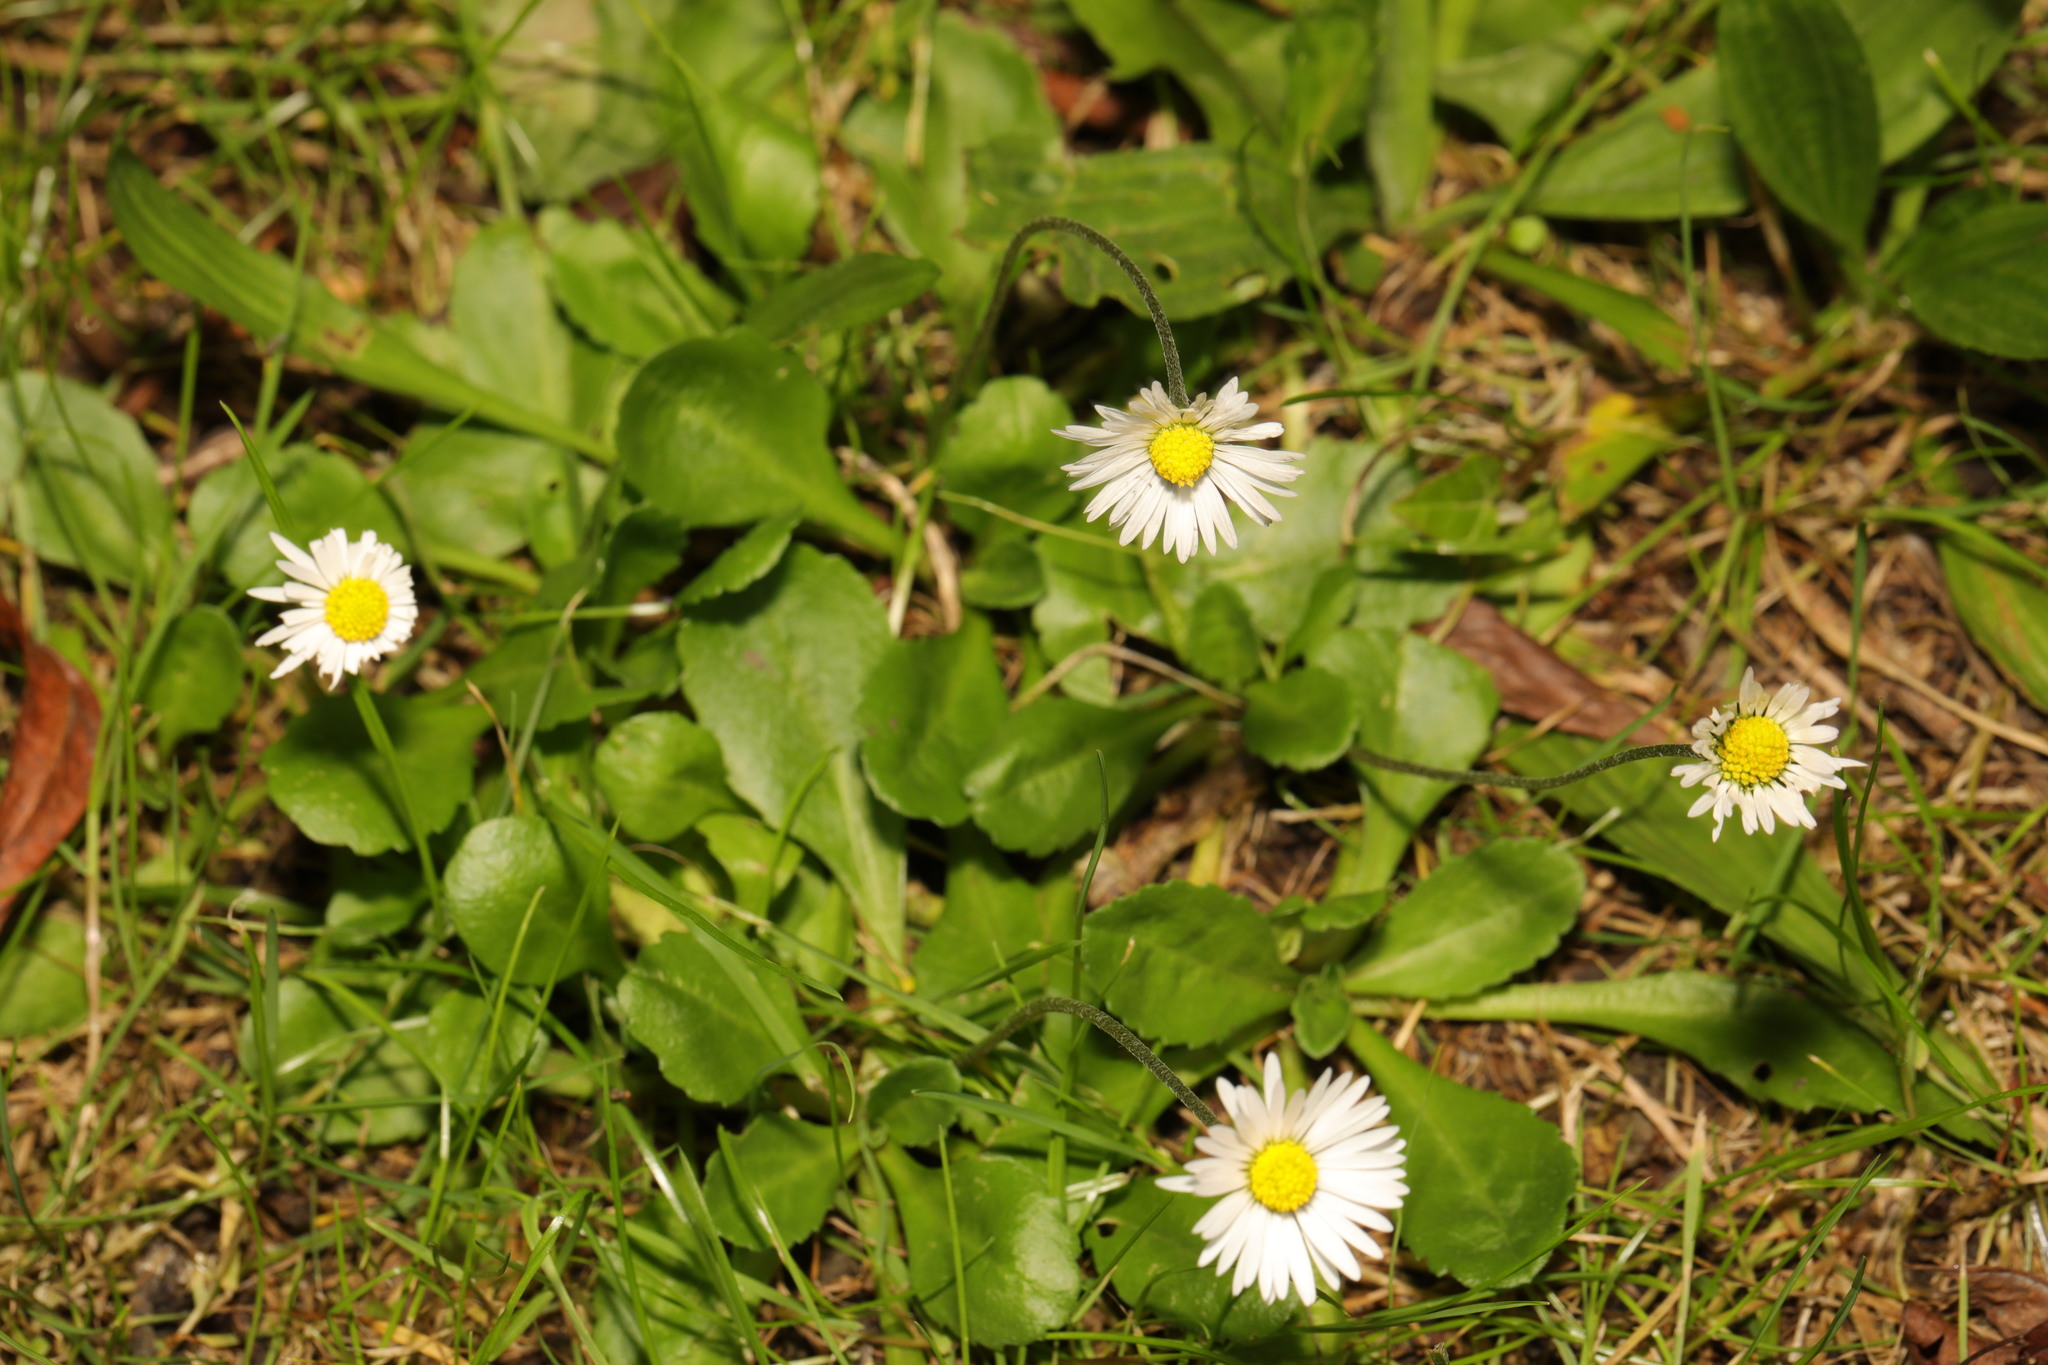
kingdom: Plantae
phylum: Tracheophyta
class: Magnoliopsida
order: Asterales
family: Asteraceae
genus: Bellis
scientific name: Bellis perennis
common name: Lawndaisy
